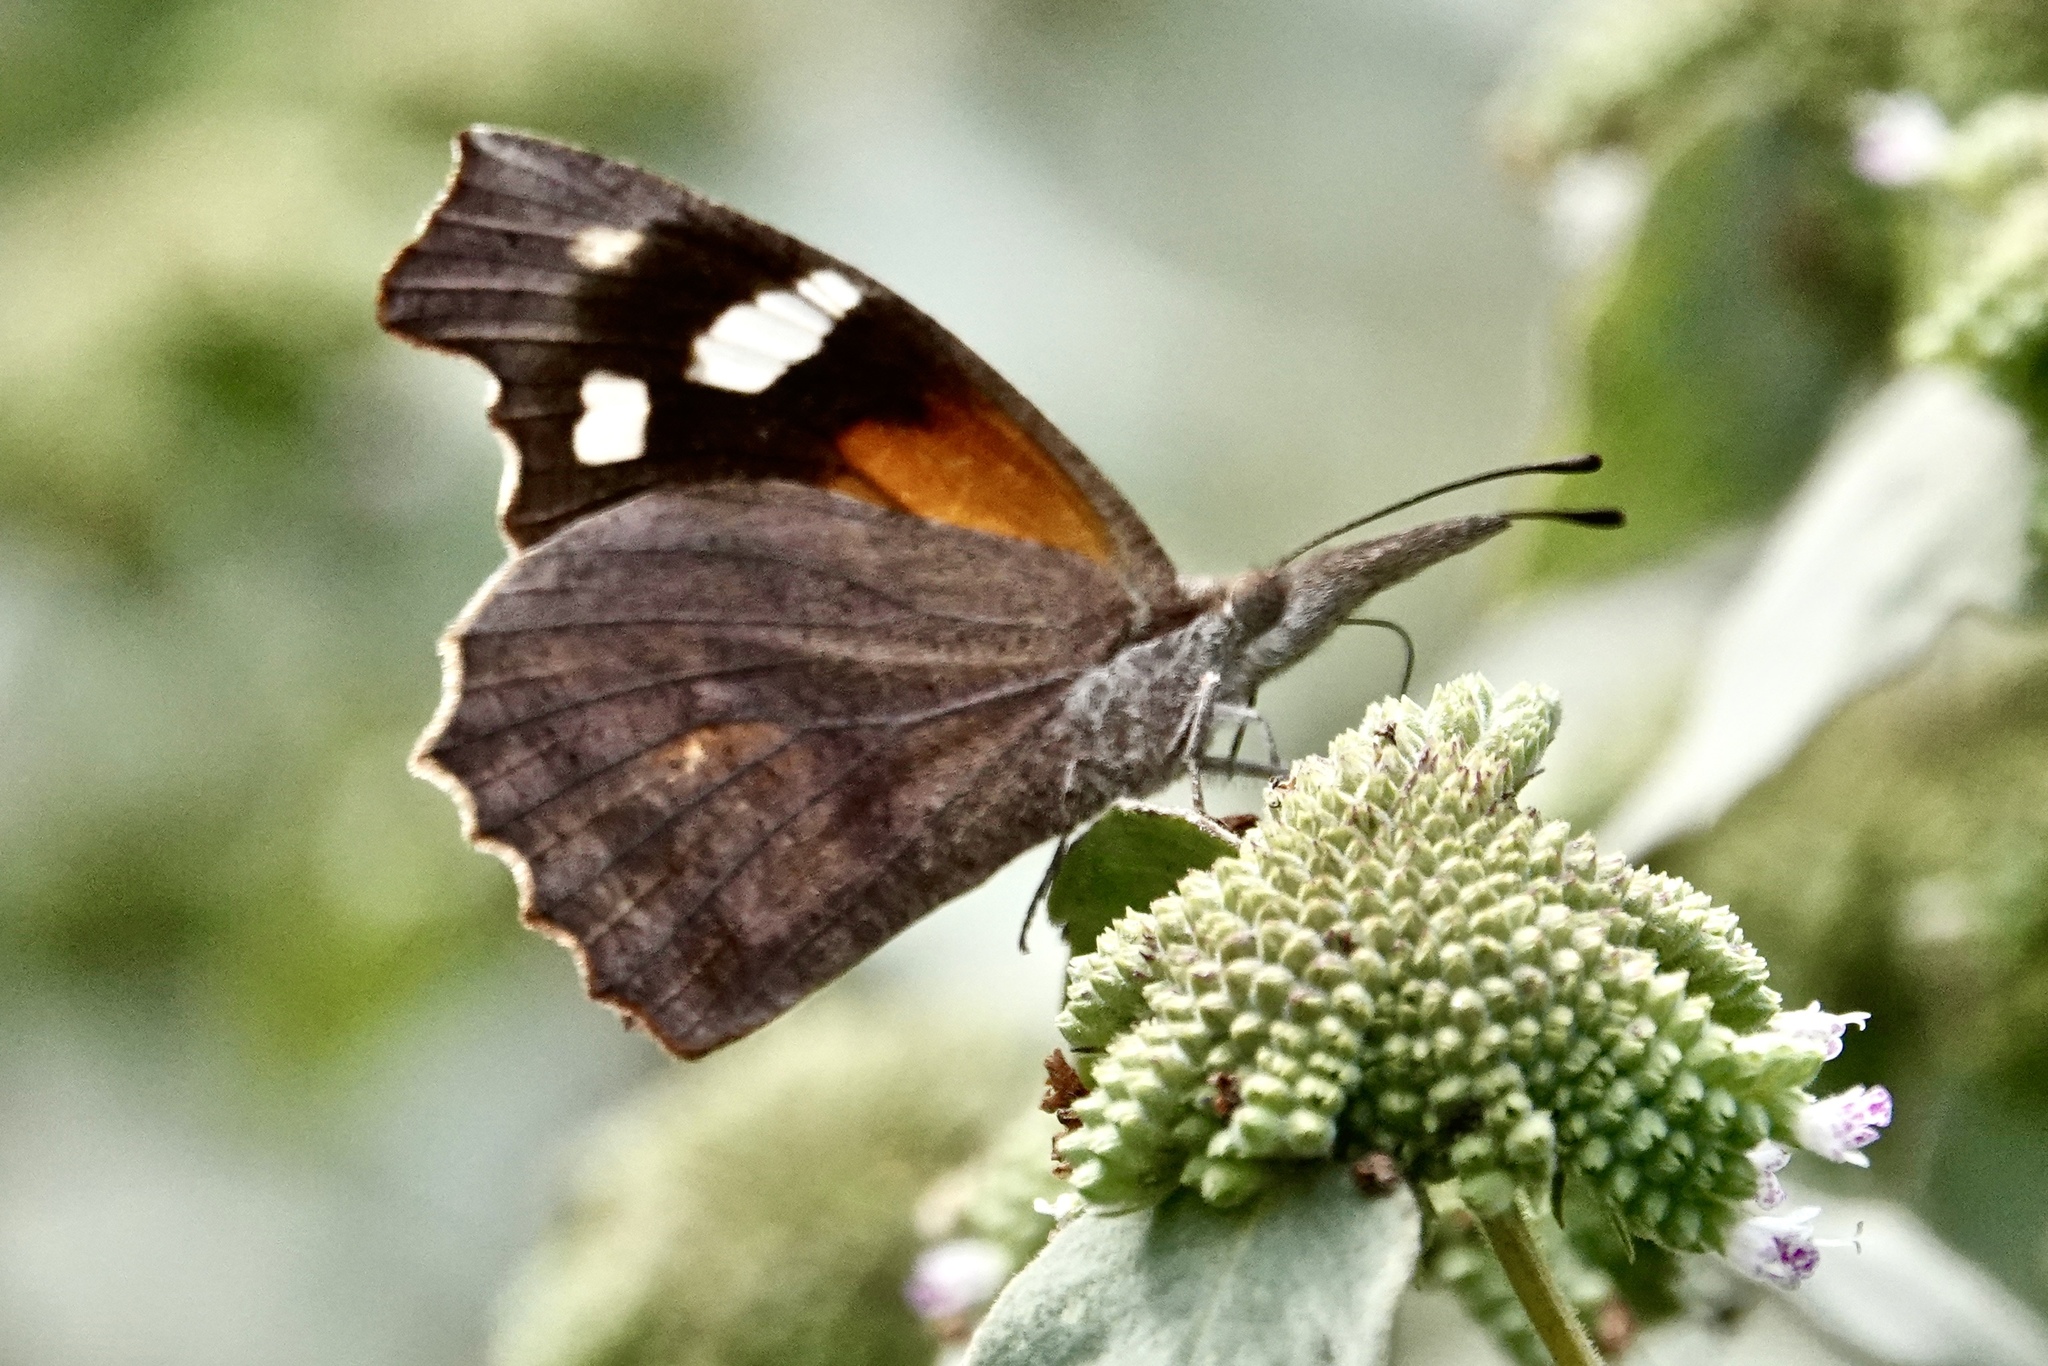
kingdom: Animalia
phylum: Arthropoda
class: Insecta
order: Lepidoptera
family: Nymphalidae
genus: Libytheana
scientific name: Libytheana carinenta
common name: American snout
